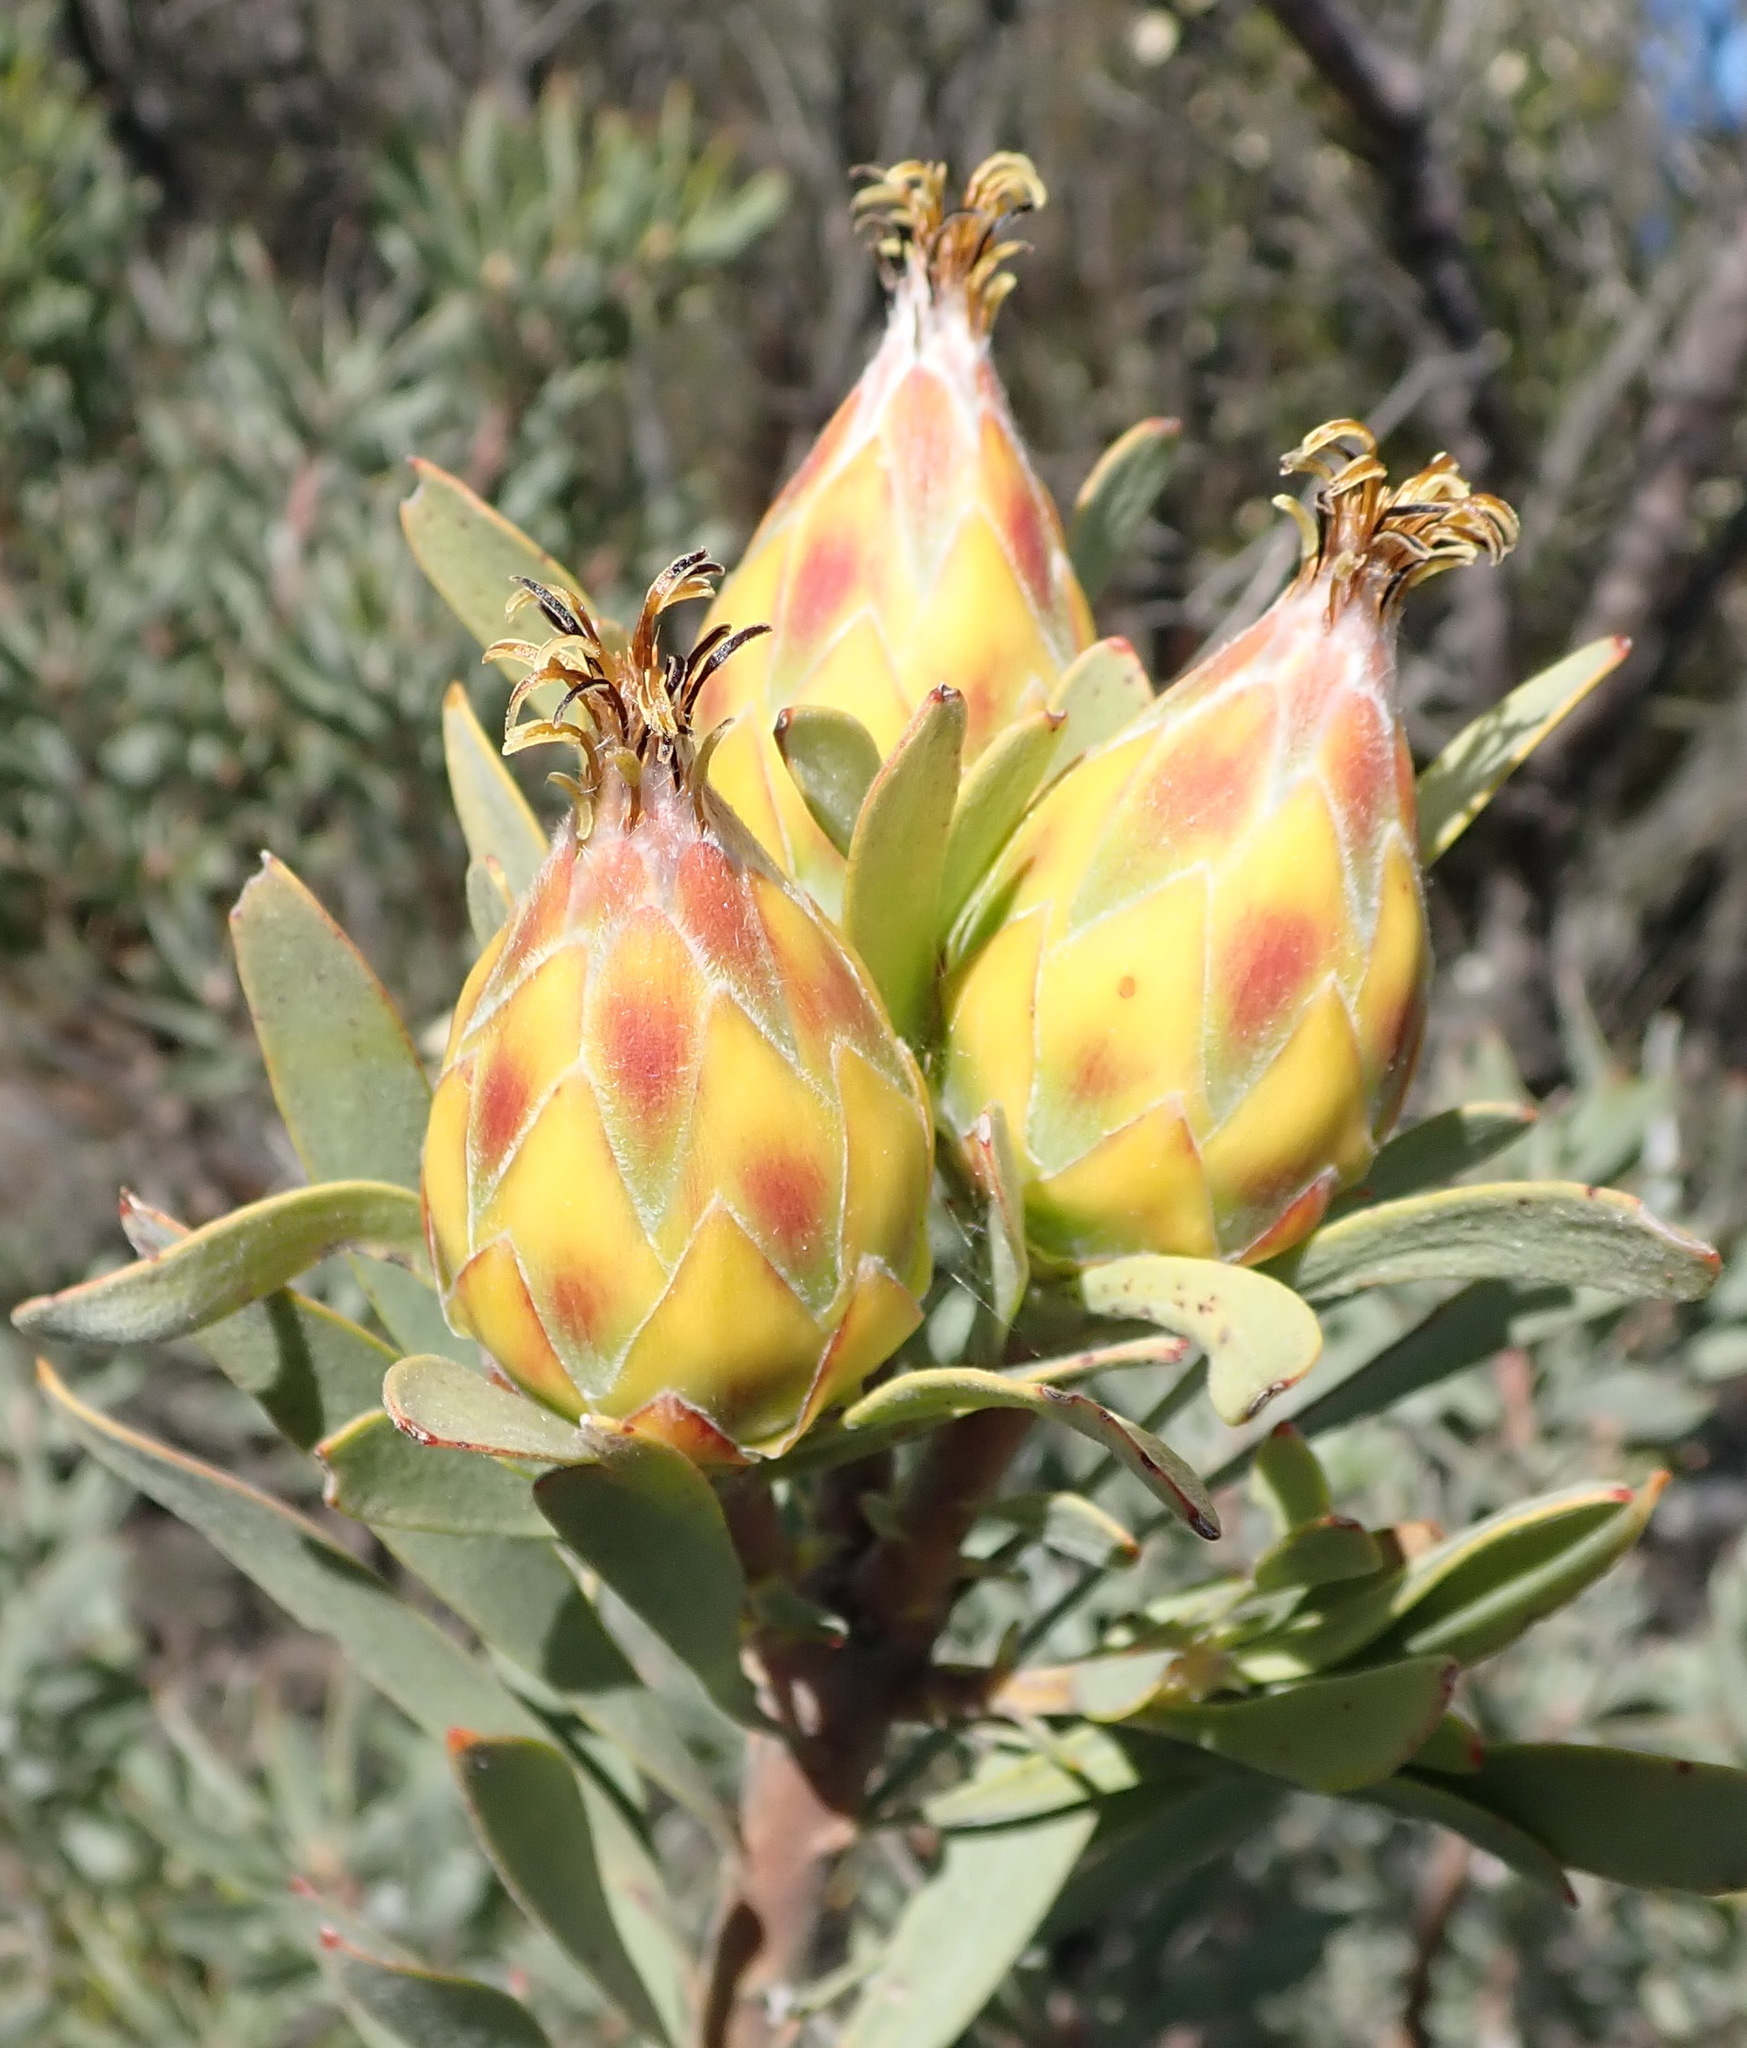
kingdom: Plantae
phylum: Tracheophyta
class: Magnoliopsida
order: Proteales
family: Proteaceae
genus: Leucadendron
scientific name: Leucadendron rubrum
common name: Spinning top
